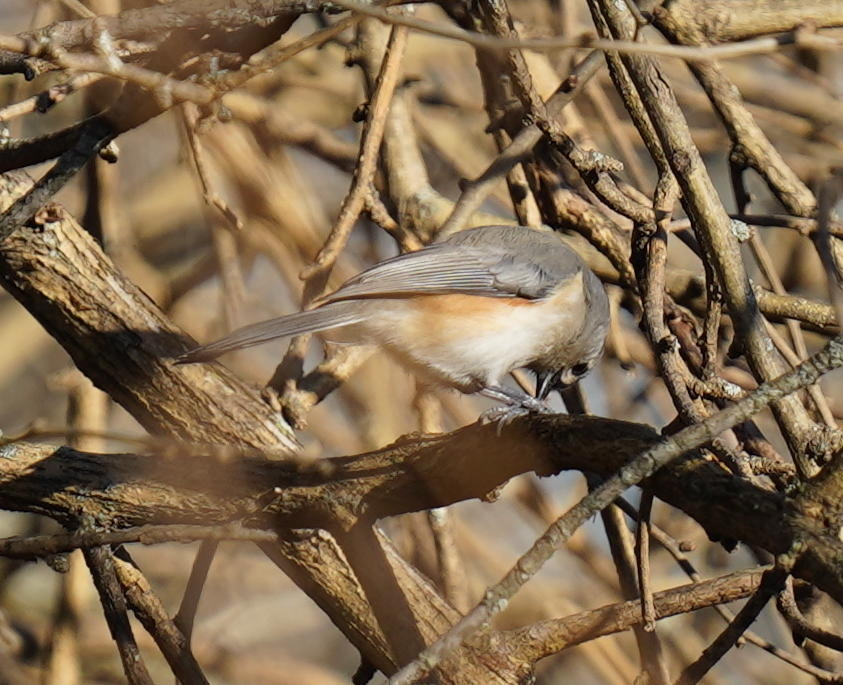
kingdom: Animalia
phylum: Chordata
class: Aves
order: Passeriformes
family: Paridae
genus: Baeolophus
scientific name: Baeolophus bicolor
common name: Tufted titmouse
